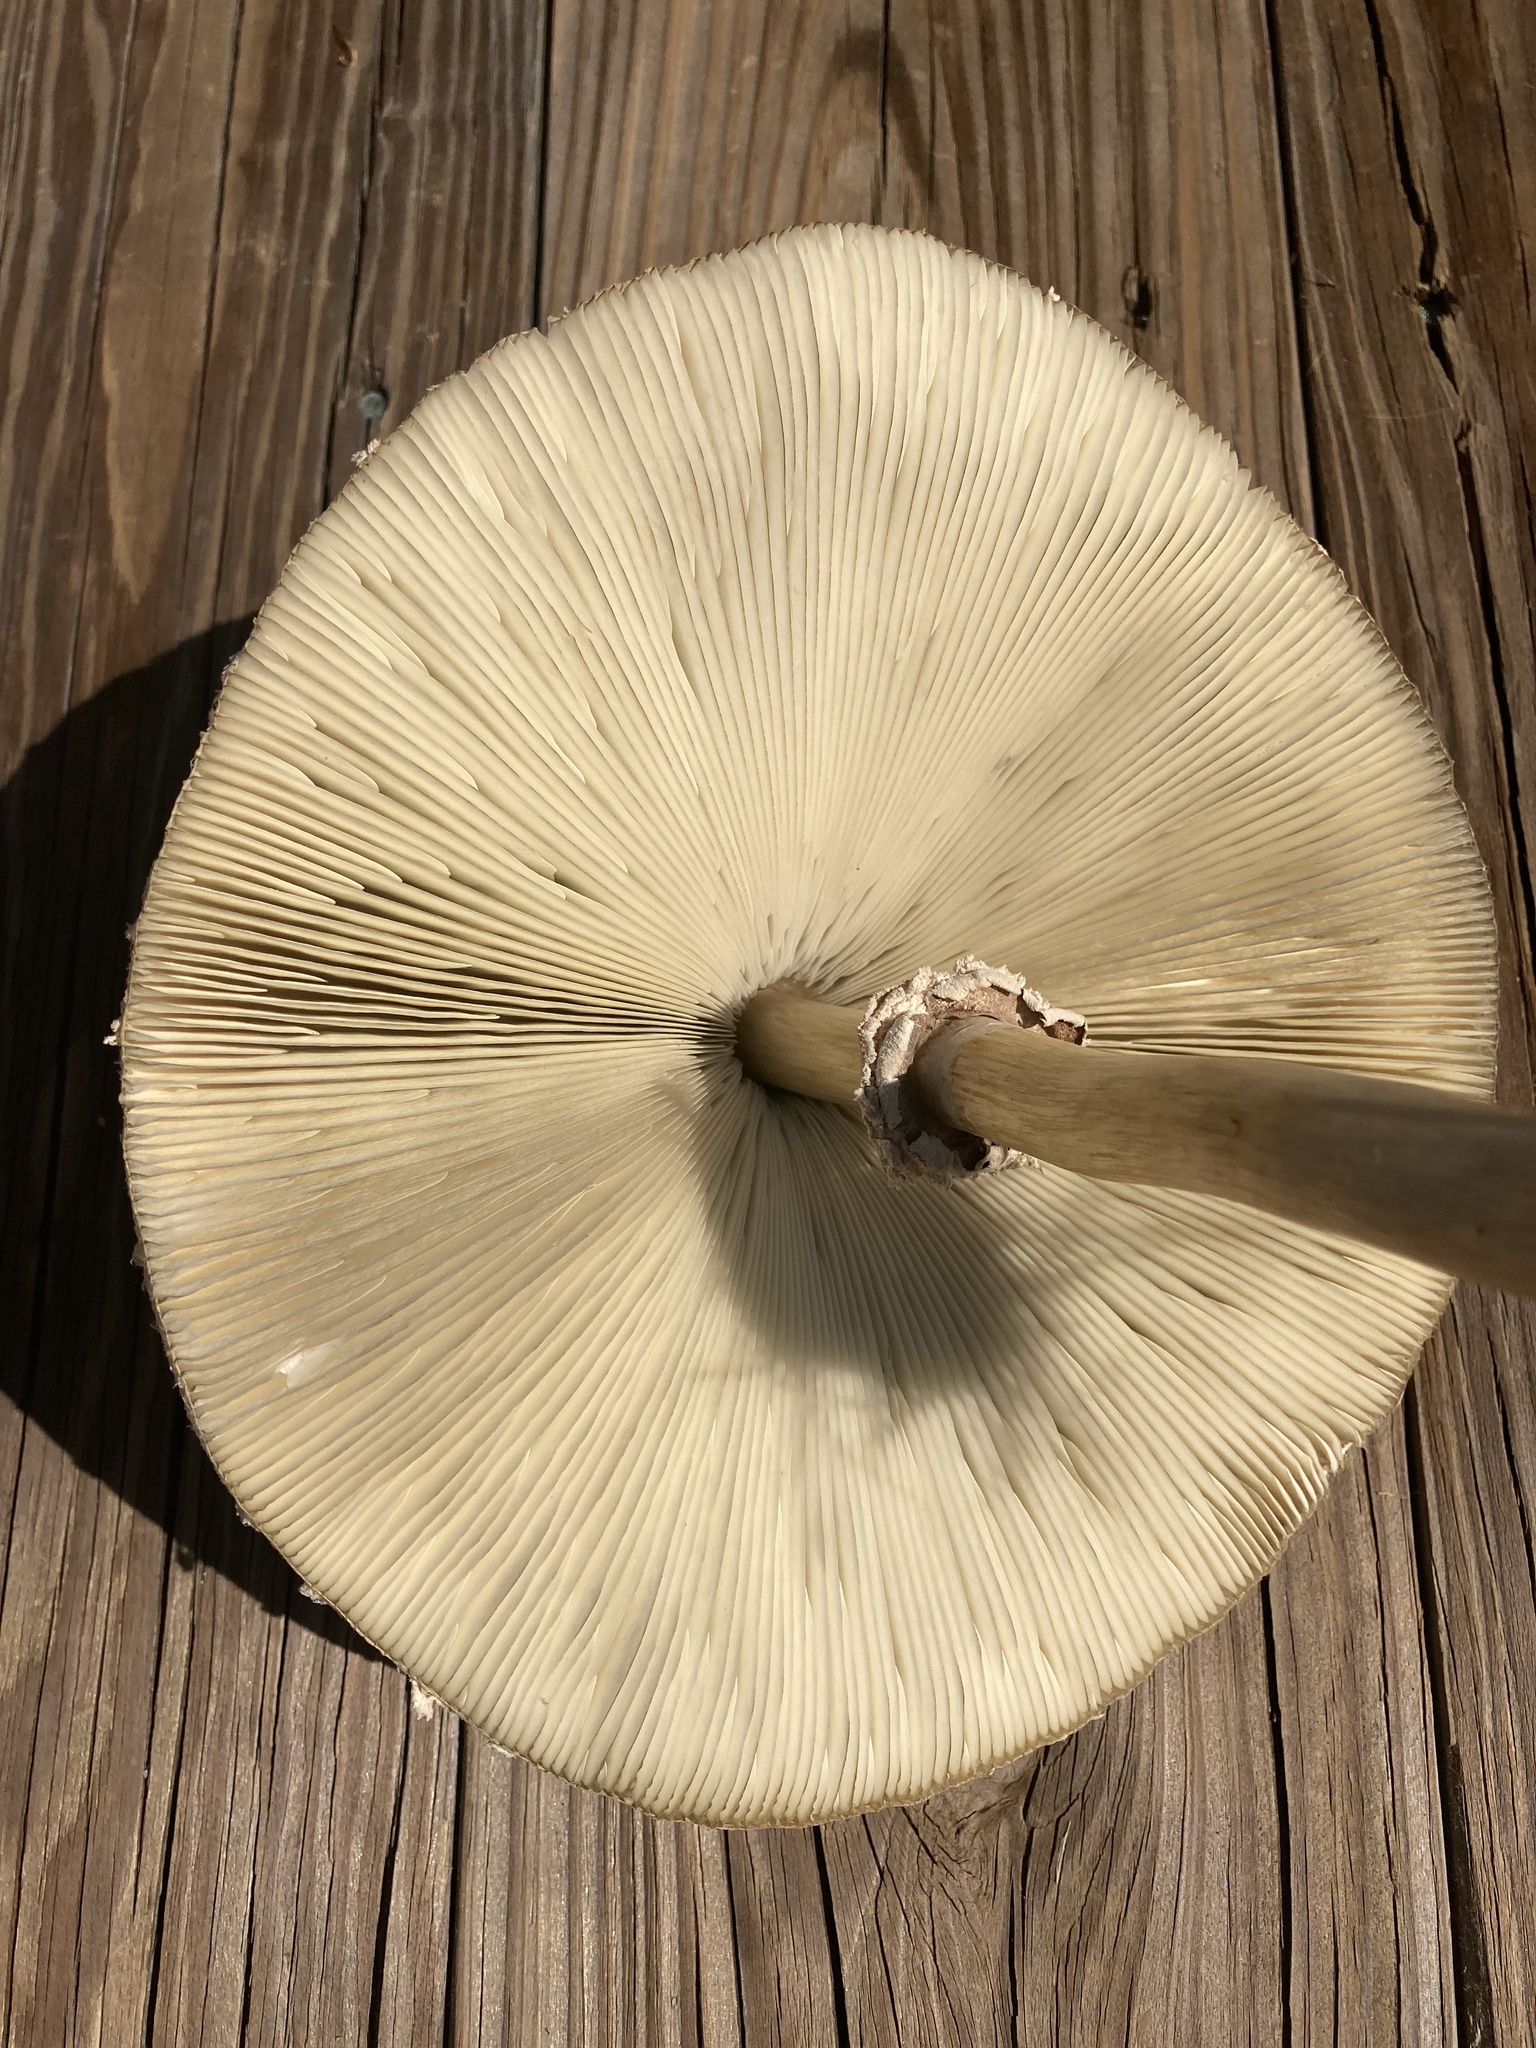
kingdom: Fungi
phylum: Basidiomycota
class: Agaricomycetes
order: Agaricales
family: Agaricaceae
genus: Chlorophyllum
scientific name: Chlorophyllum molybdites
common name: False parasol
